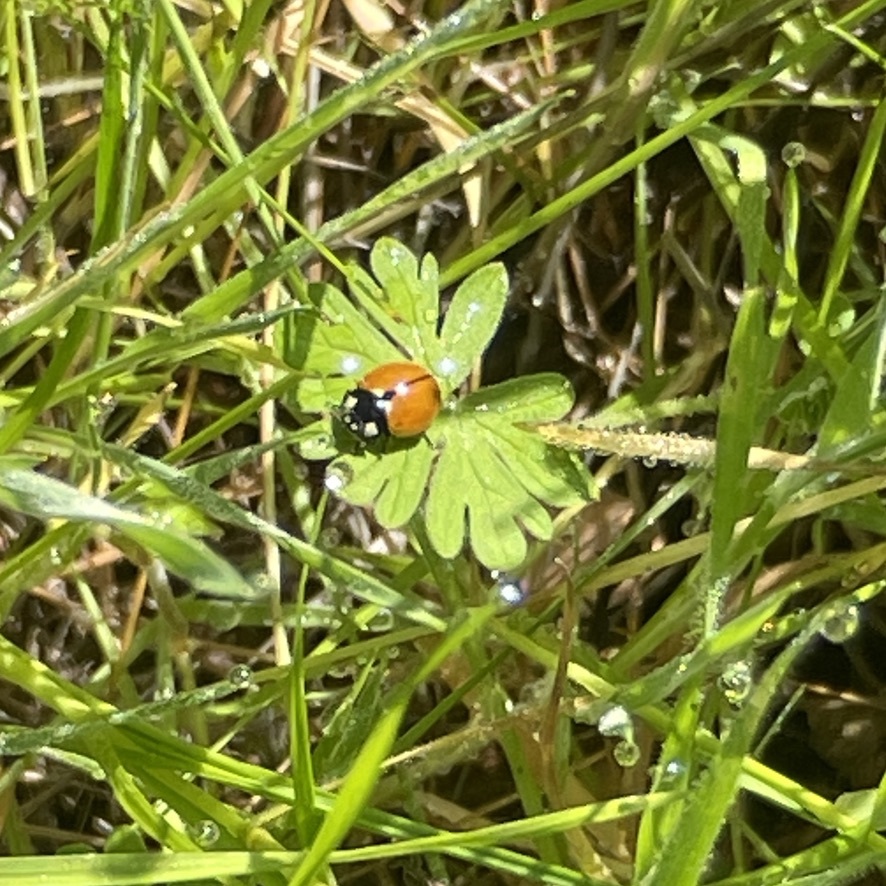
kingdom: Animalia
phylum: Arthropoda
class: Insecta
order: Coleoptera
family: Coccinellidae
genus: Coccinella
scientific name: Coccinella californica
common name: Lady beetle
